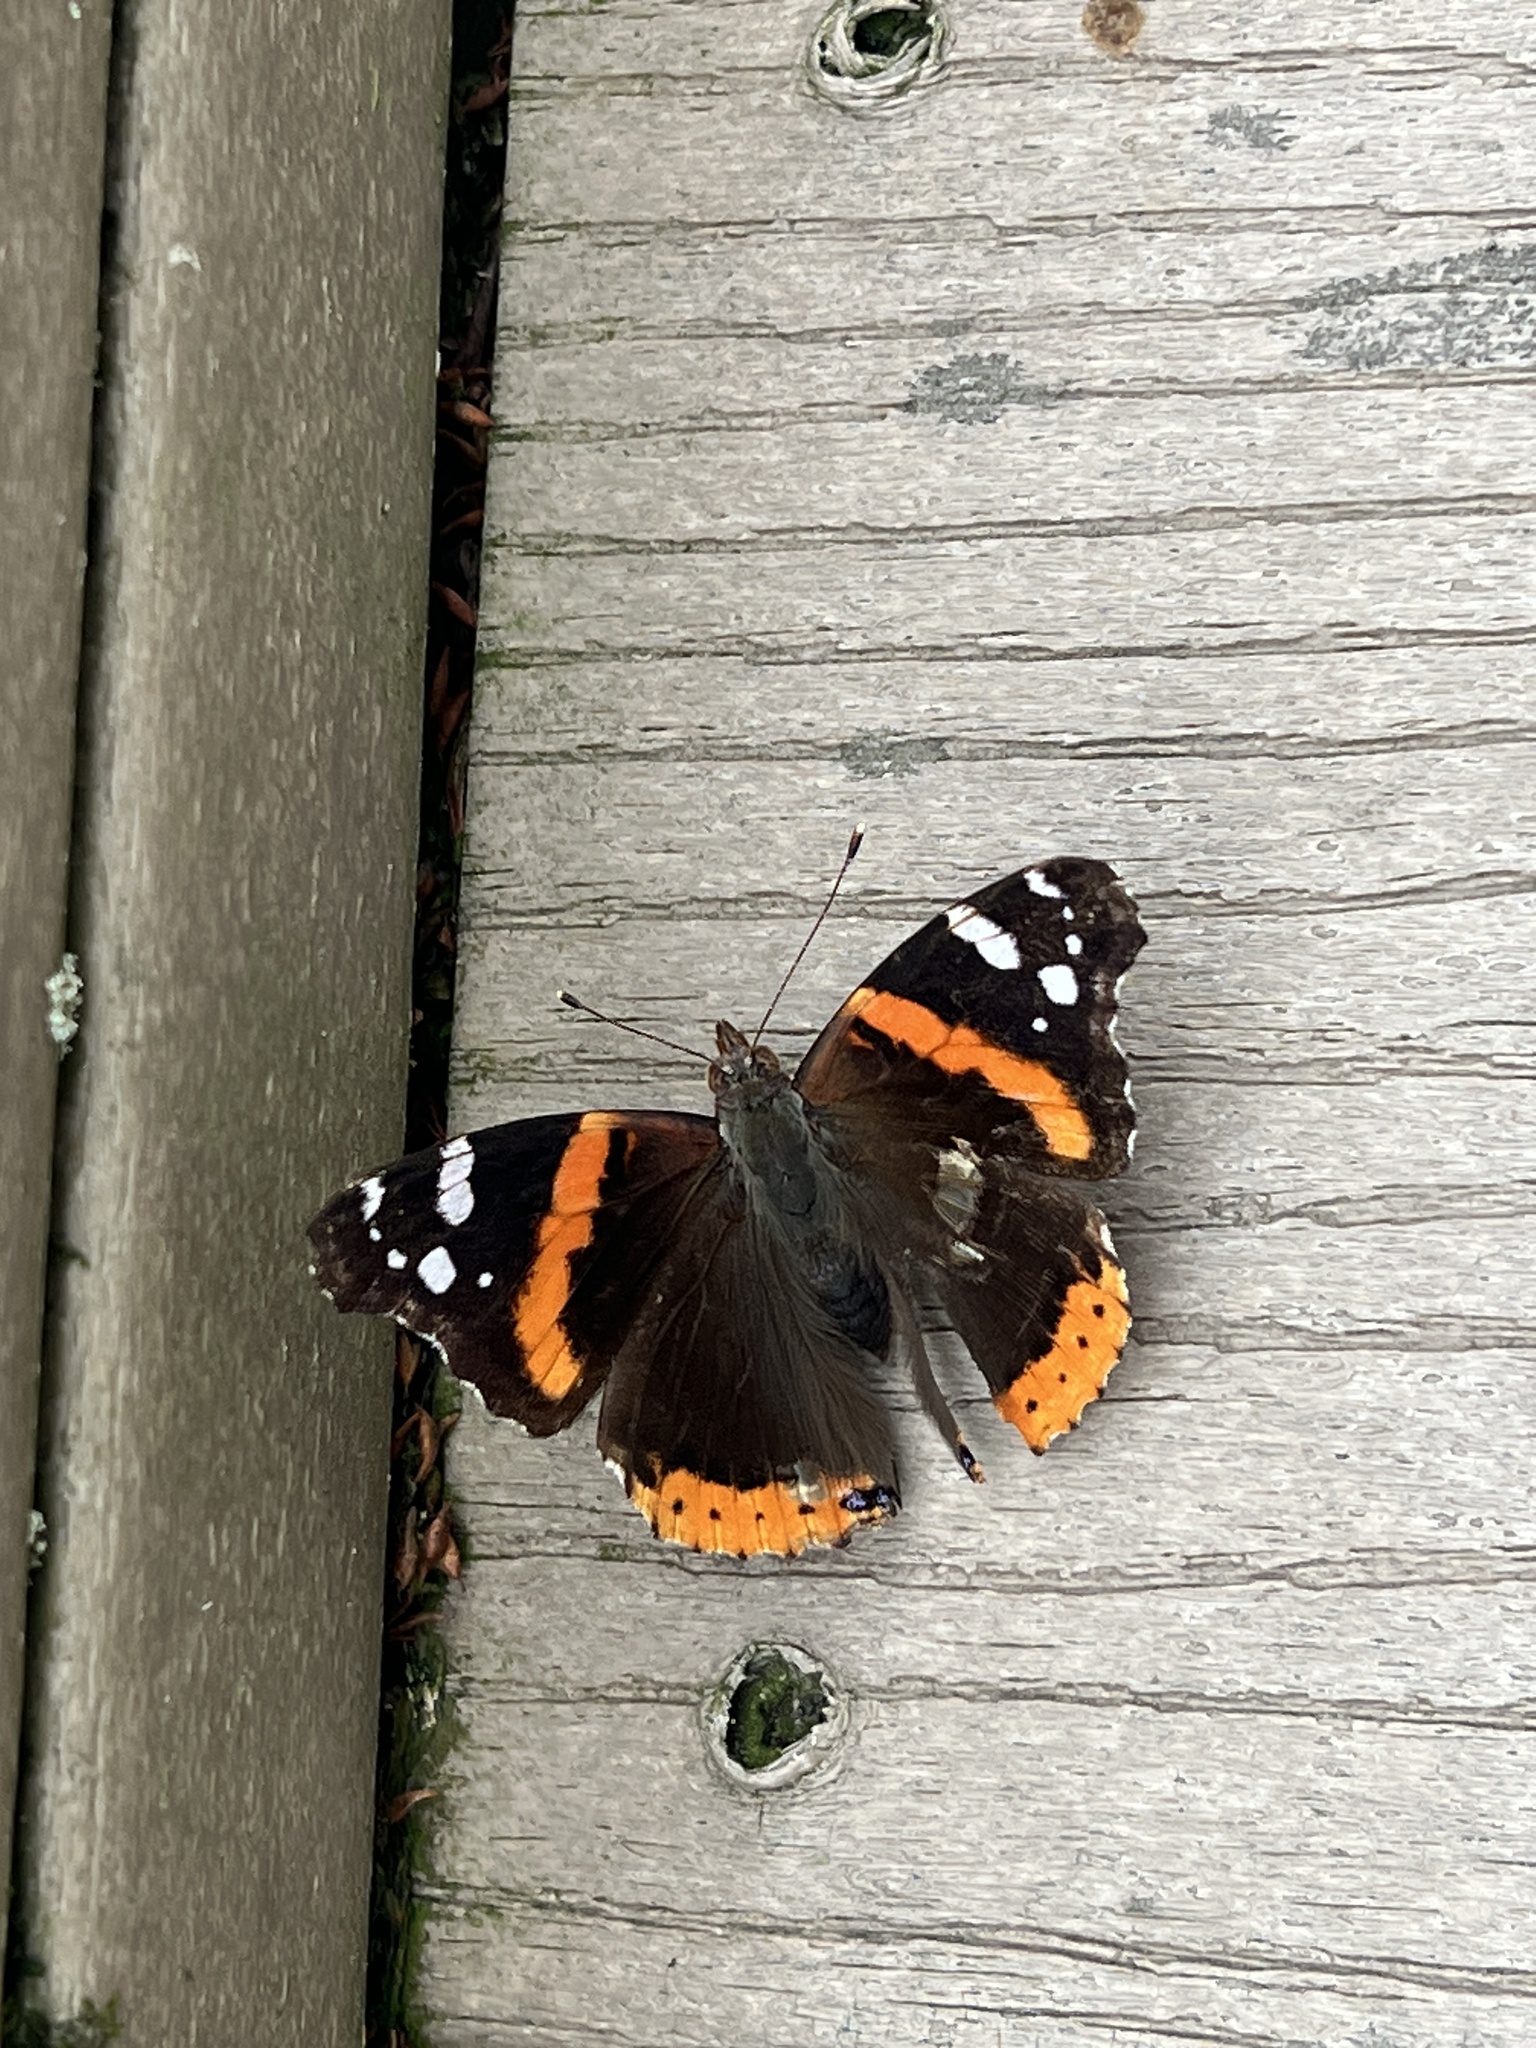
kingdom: Animalia
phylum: Arthropoda
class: Insecta
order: Lepidoptera
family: Nymphalidae
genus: Vanessa
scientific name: Vanessa atalanta
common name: Red admiral
